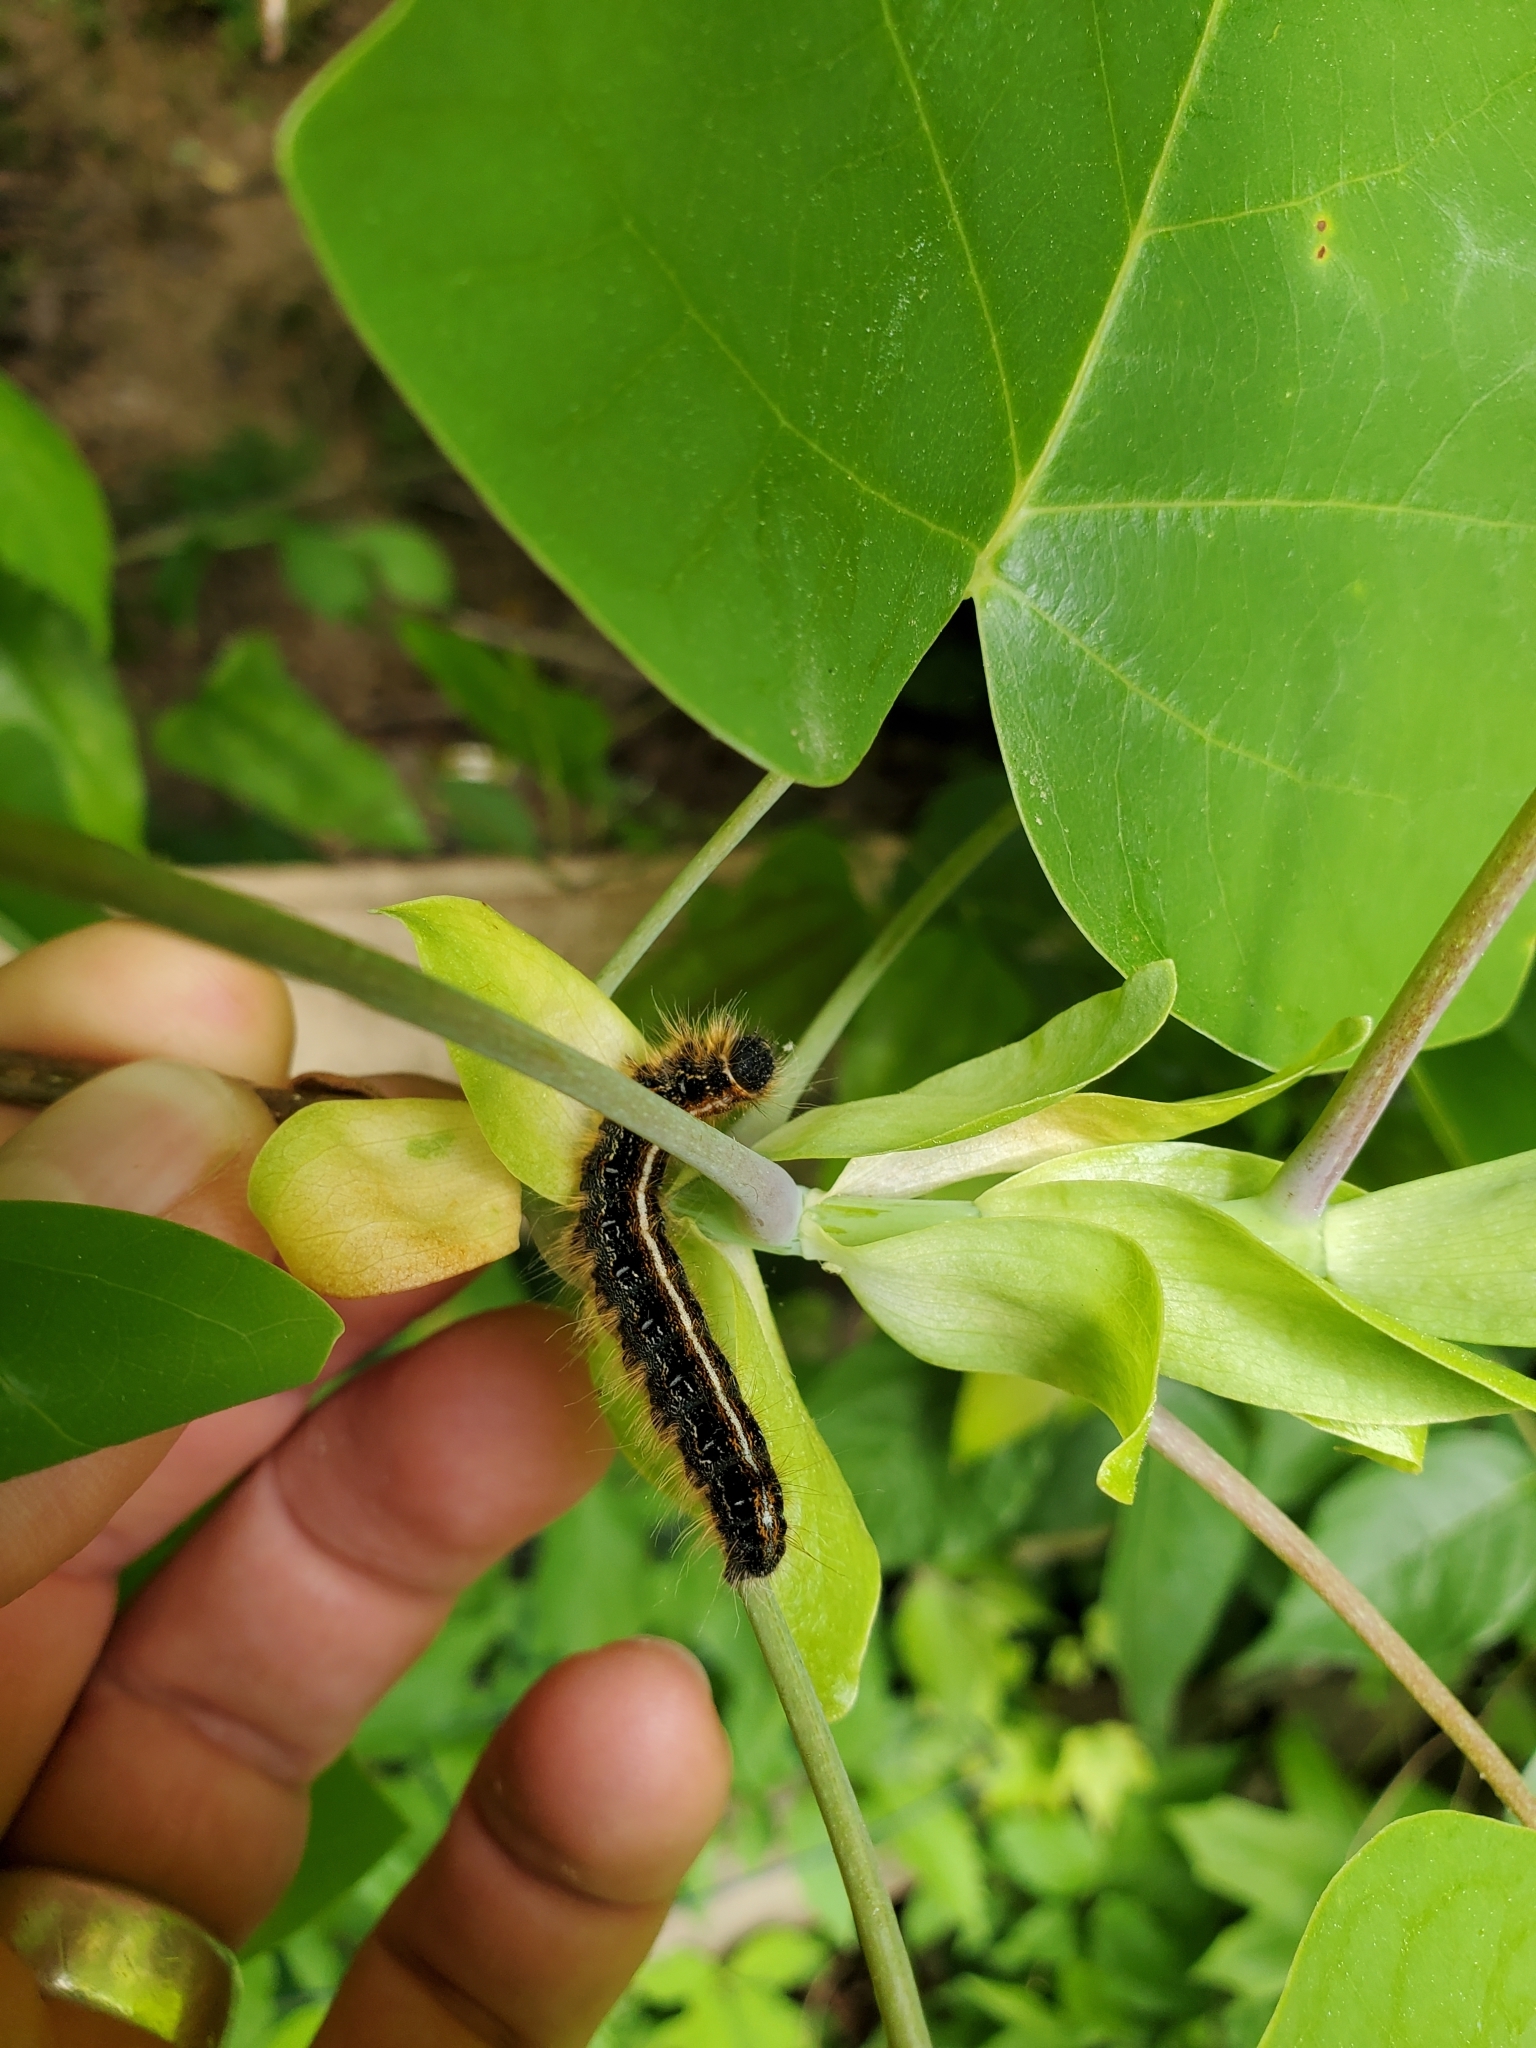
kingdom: Animalia
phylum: Arthropoda
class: Insecta
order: Lepidoptera
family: Lasiocampidae
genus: Malacosoma
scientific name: Malacosoma americana
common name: Eastern tent caterpillar moth
